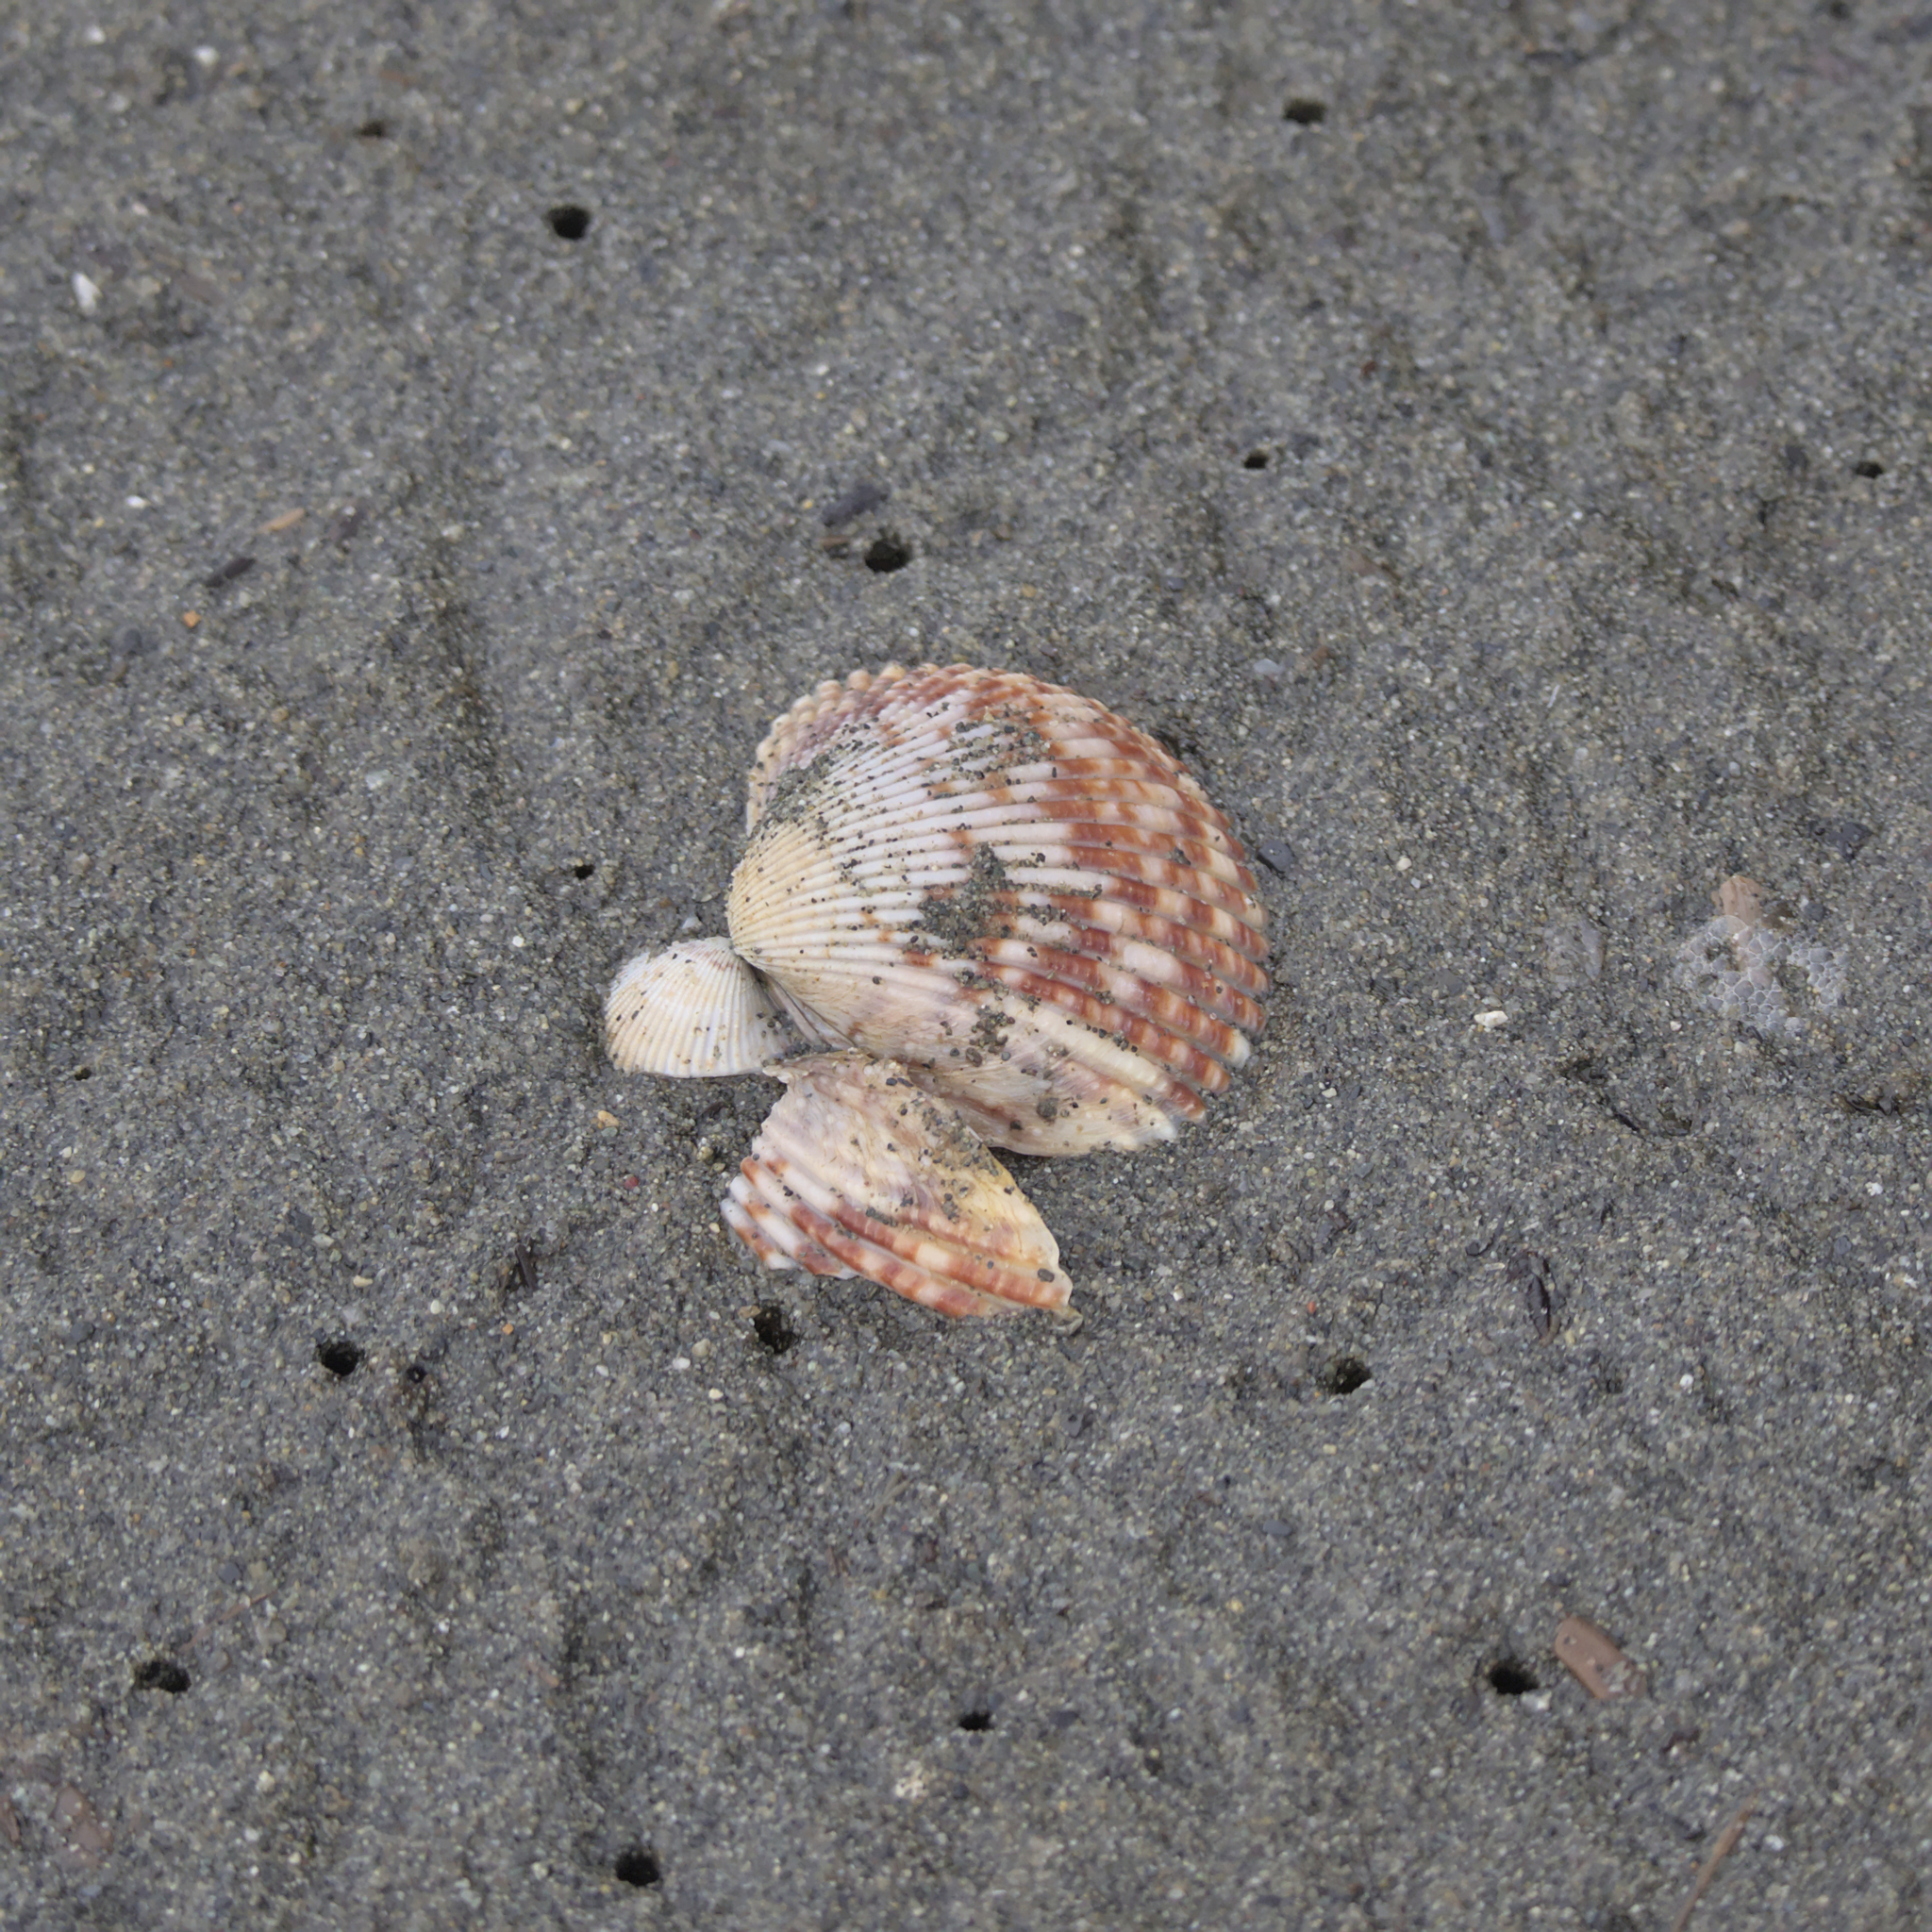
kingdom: Animalia
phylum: Mollusca
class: Bivalvia
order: Cardiida
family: Cardiidae
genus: Clinocardium
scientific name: Clinocardium nuttallii
